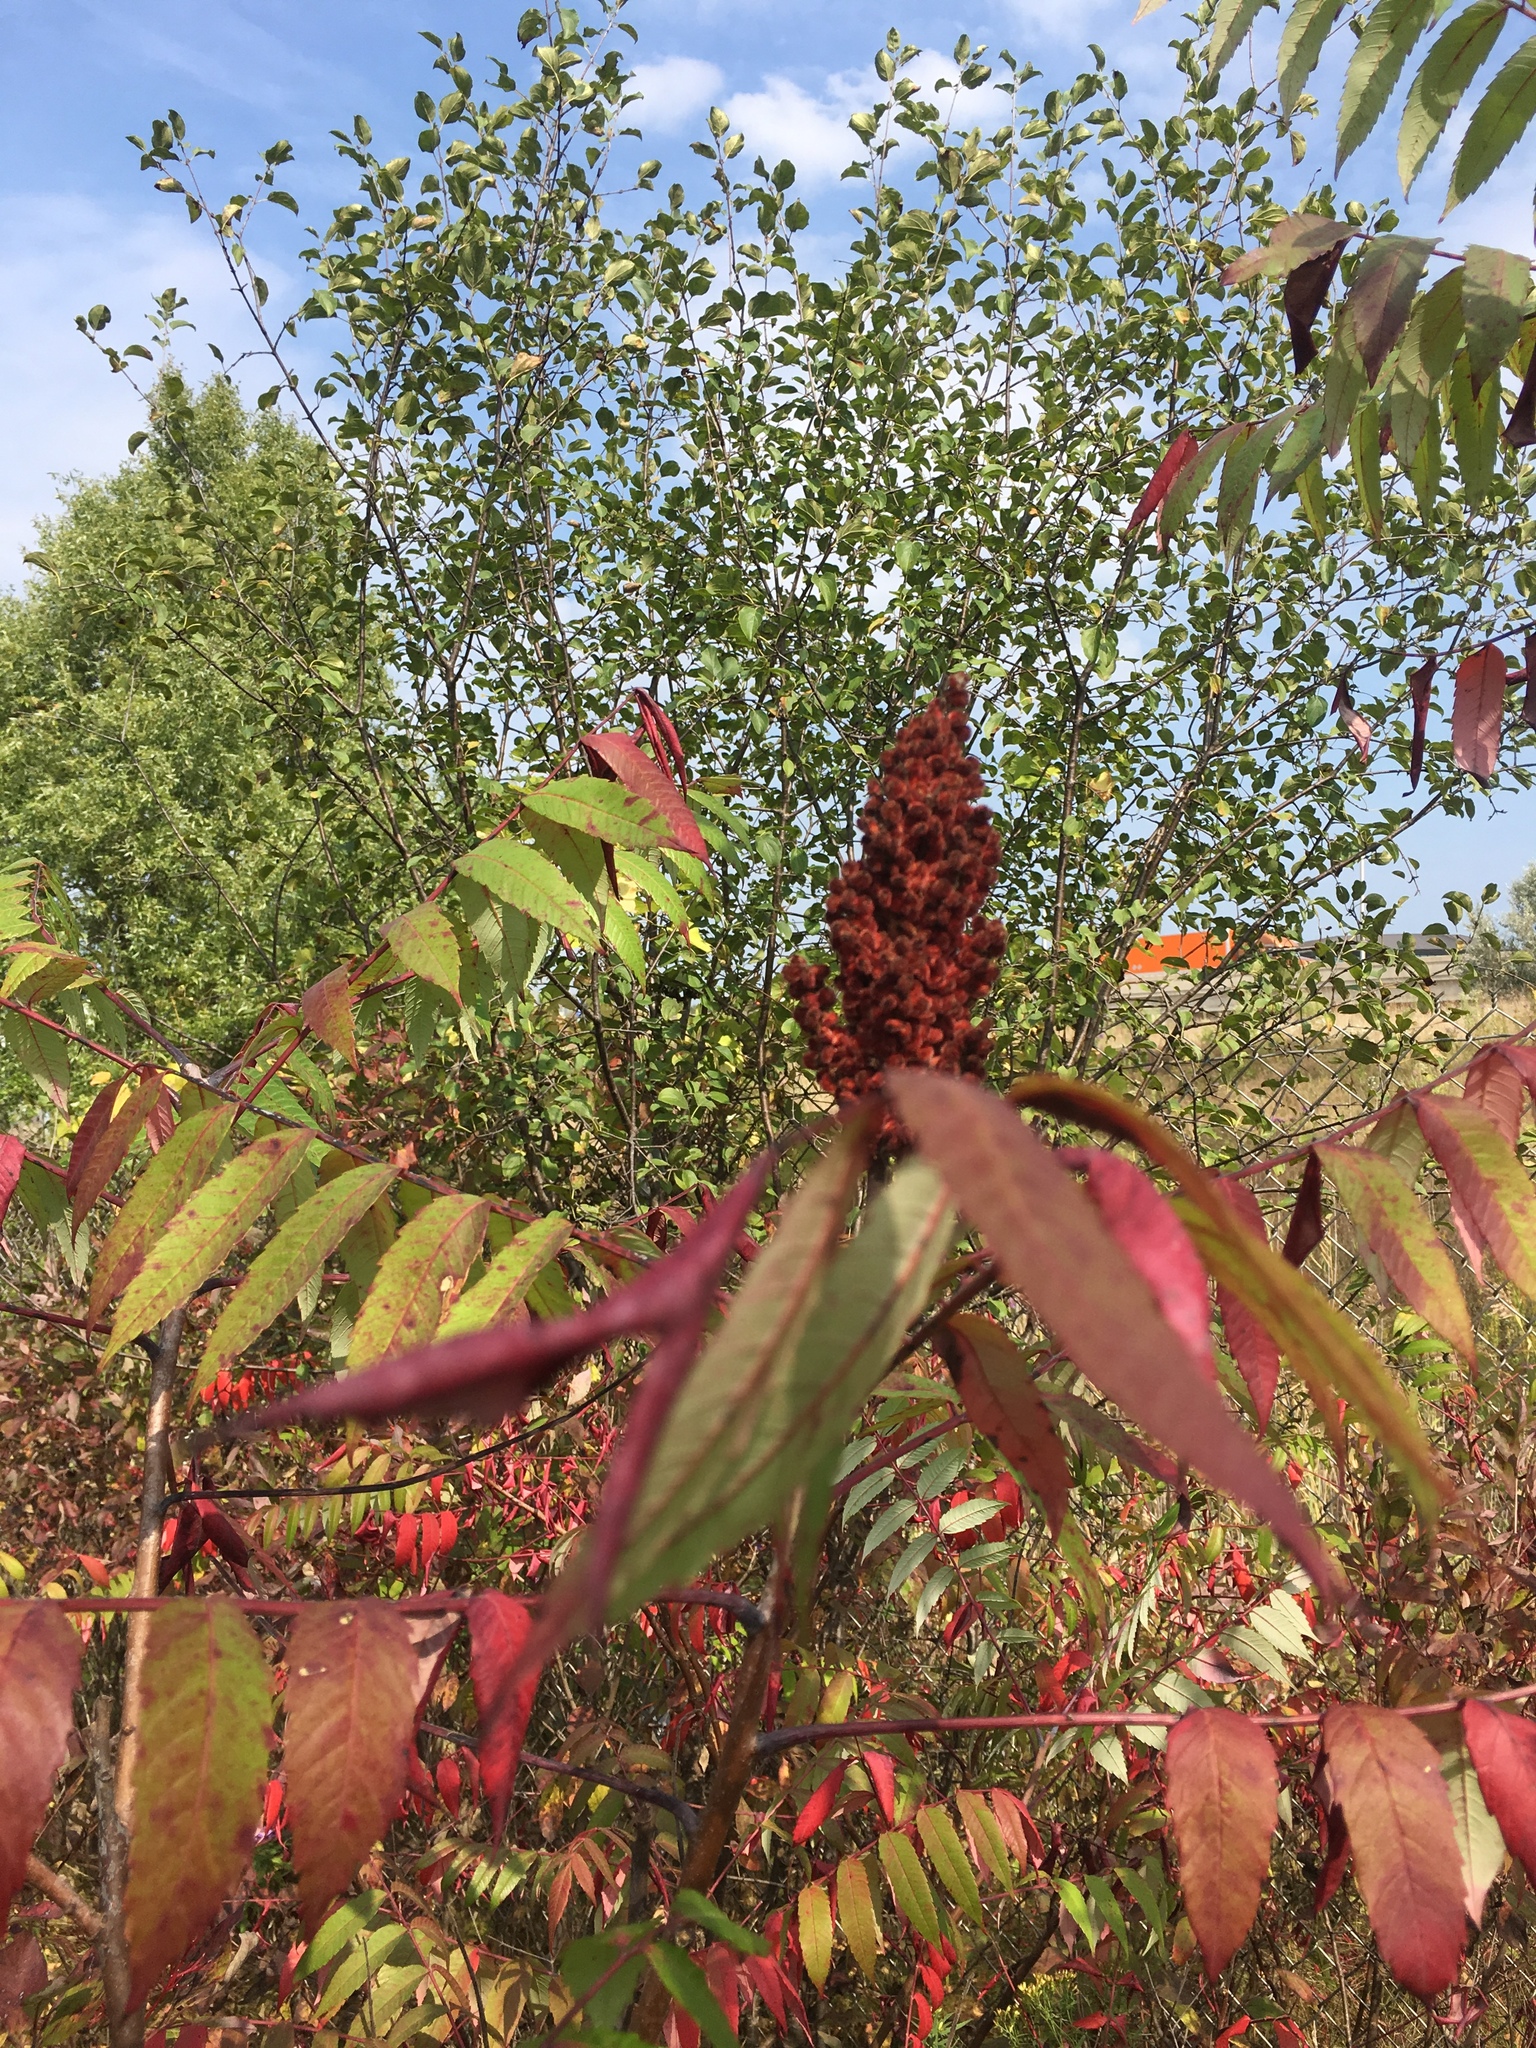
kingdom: Plantae
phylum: Tracheophyta
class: Magnoliopsida
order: Sapindales
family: Anacardiaceae
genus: Rhus
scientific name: Rhus glabra
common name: Scarlet sumac
